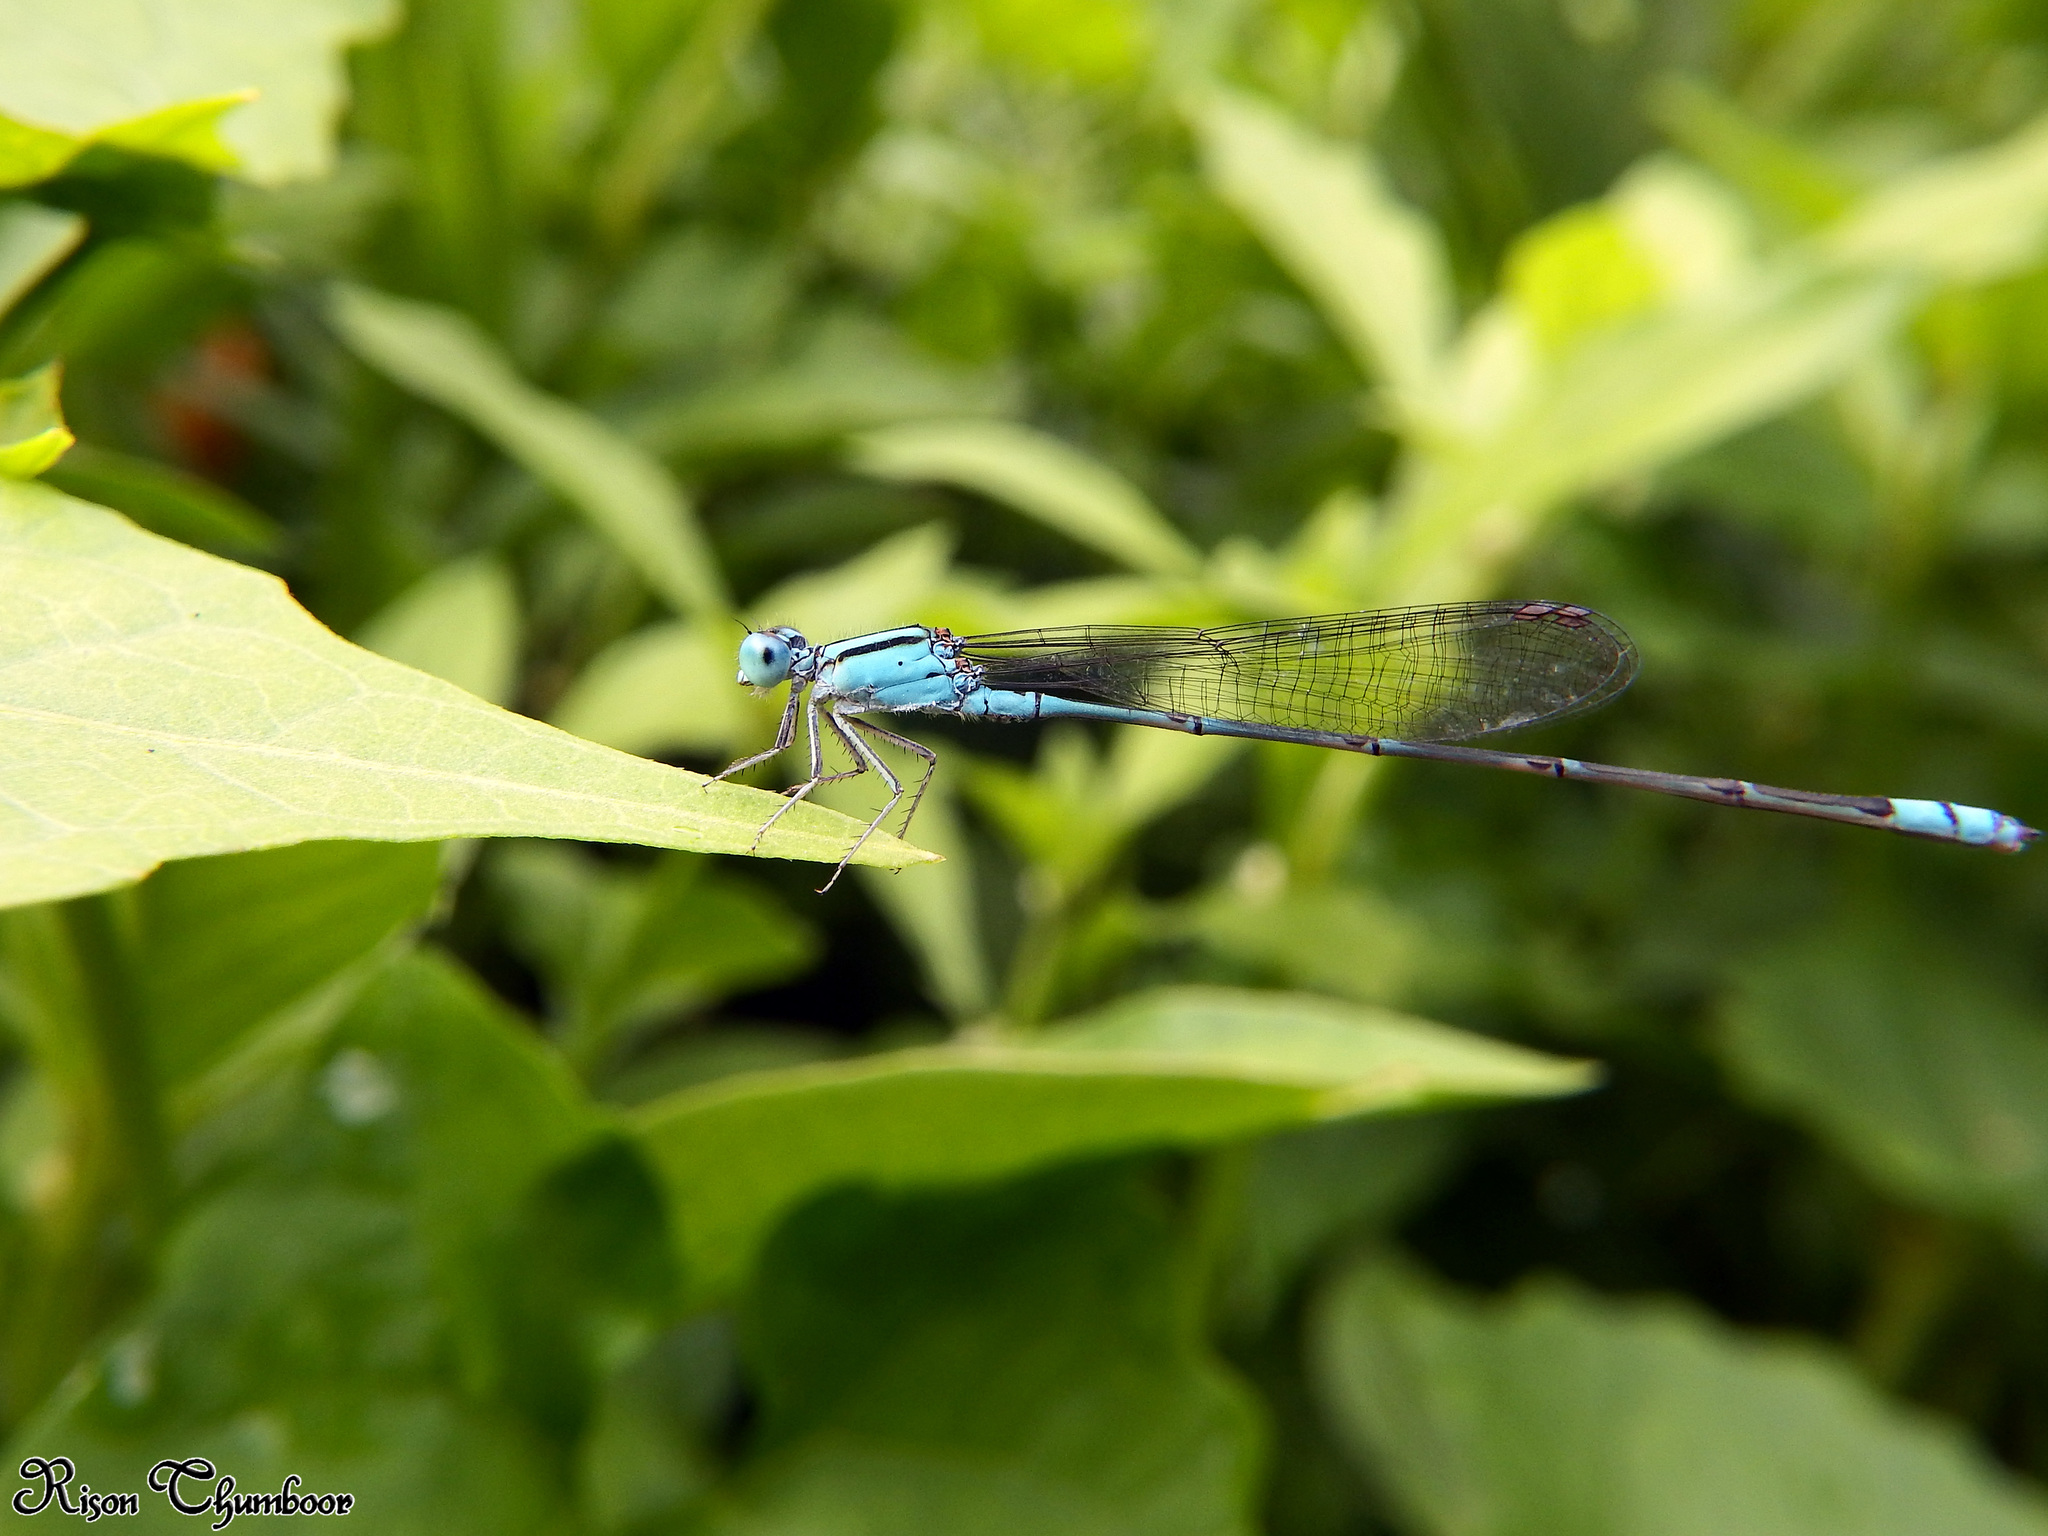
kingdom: Animalia
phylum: Arthropoda
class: Insecta
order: Odonata
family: Coenagrionidae
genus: Pseudagrion
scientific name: Pseudagrion microcephalum
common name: Blue riverdamsel
